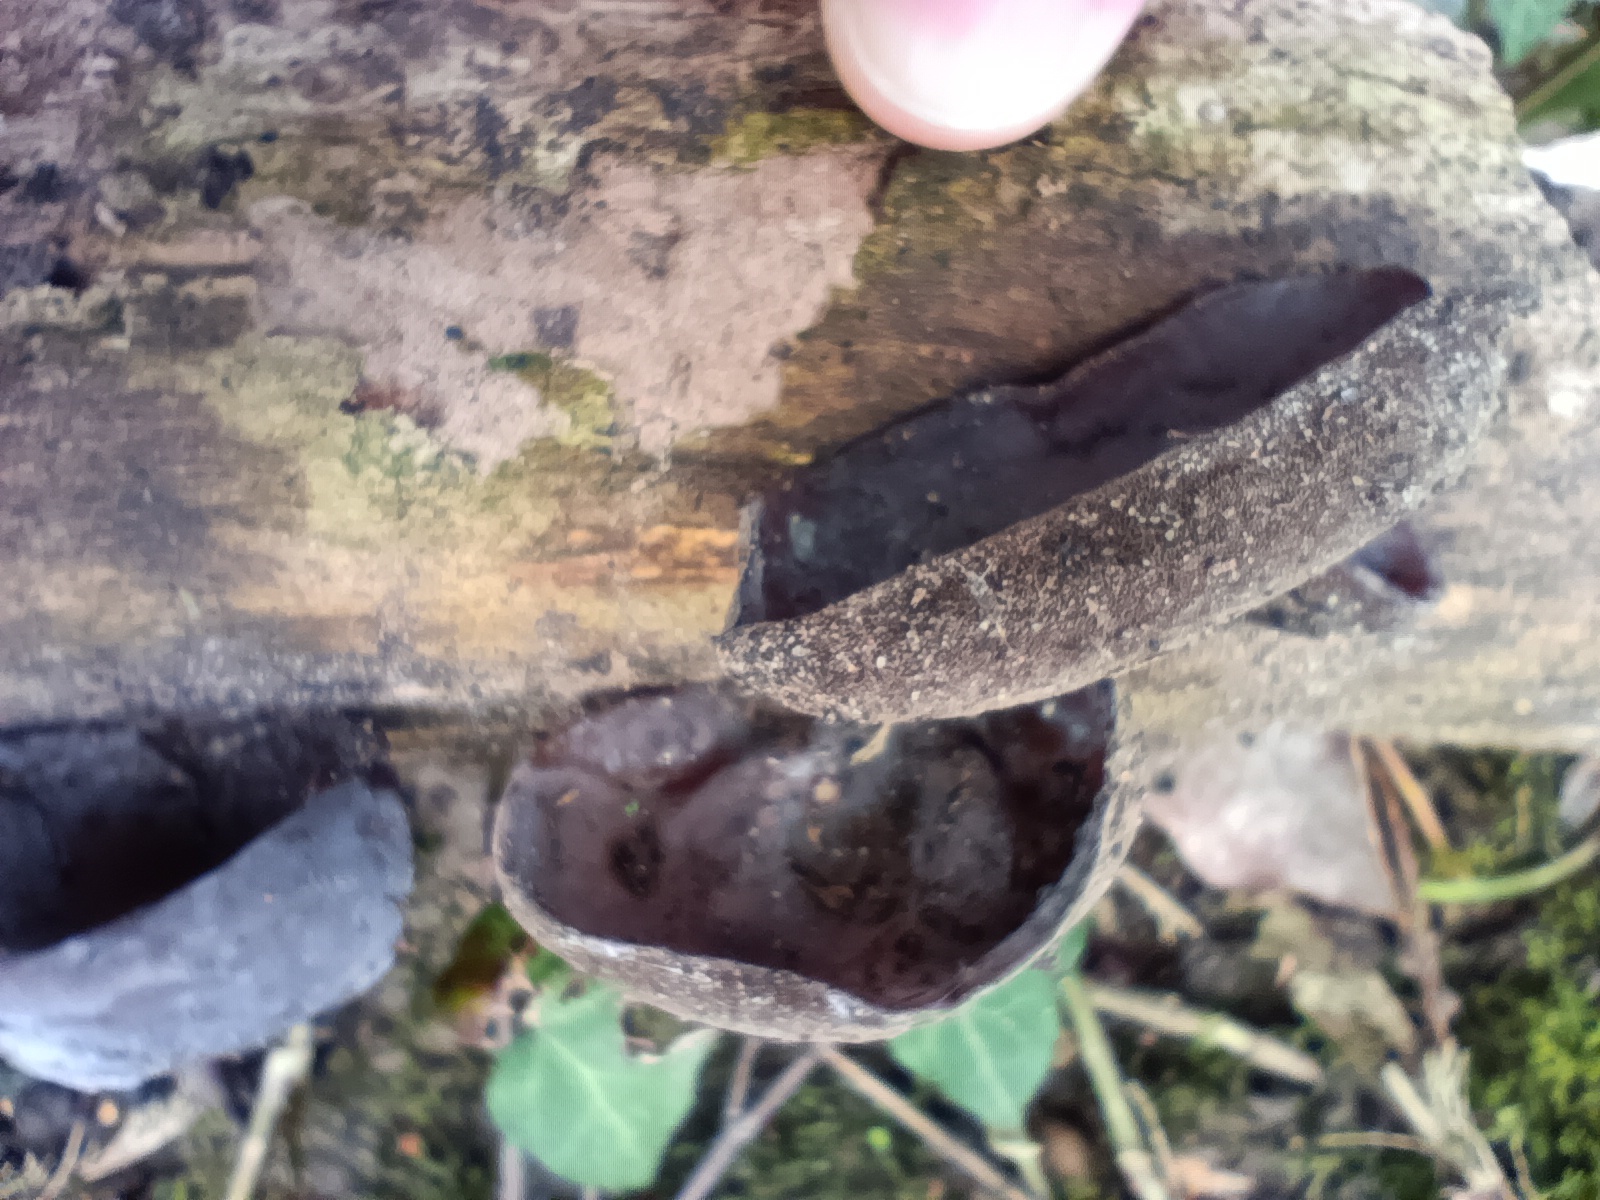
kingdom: Fungi
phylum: Basidiomycota
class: Agaricomycetes
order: Auriculariales
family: Auriculariaceae
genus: Auricularia
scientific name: Auricularia auricula-judae
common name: Jelly ear
